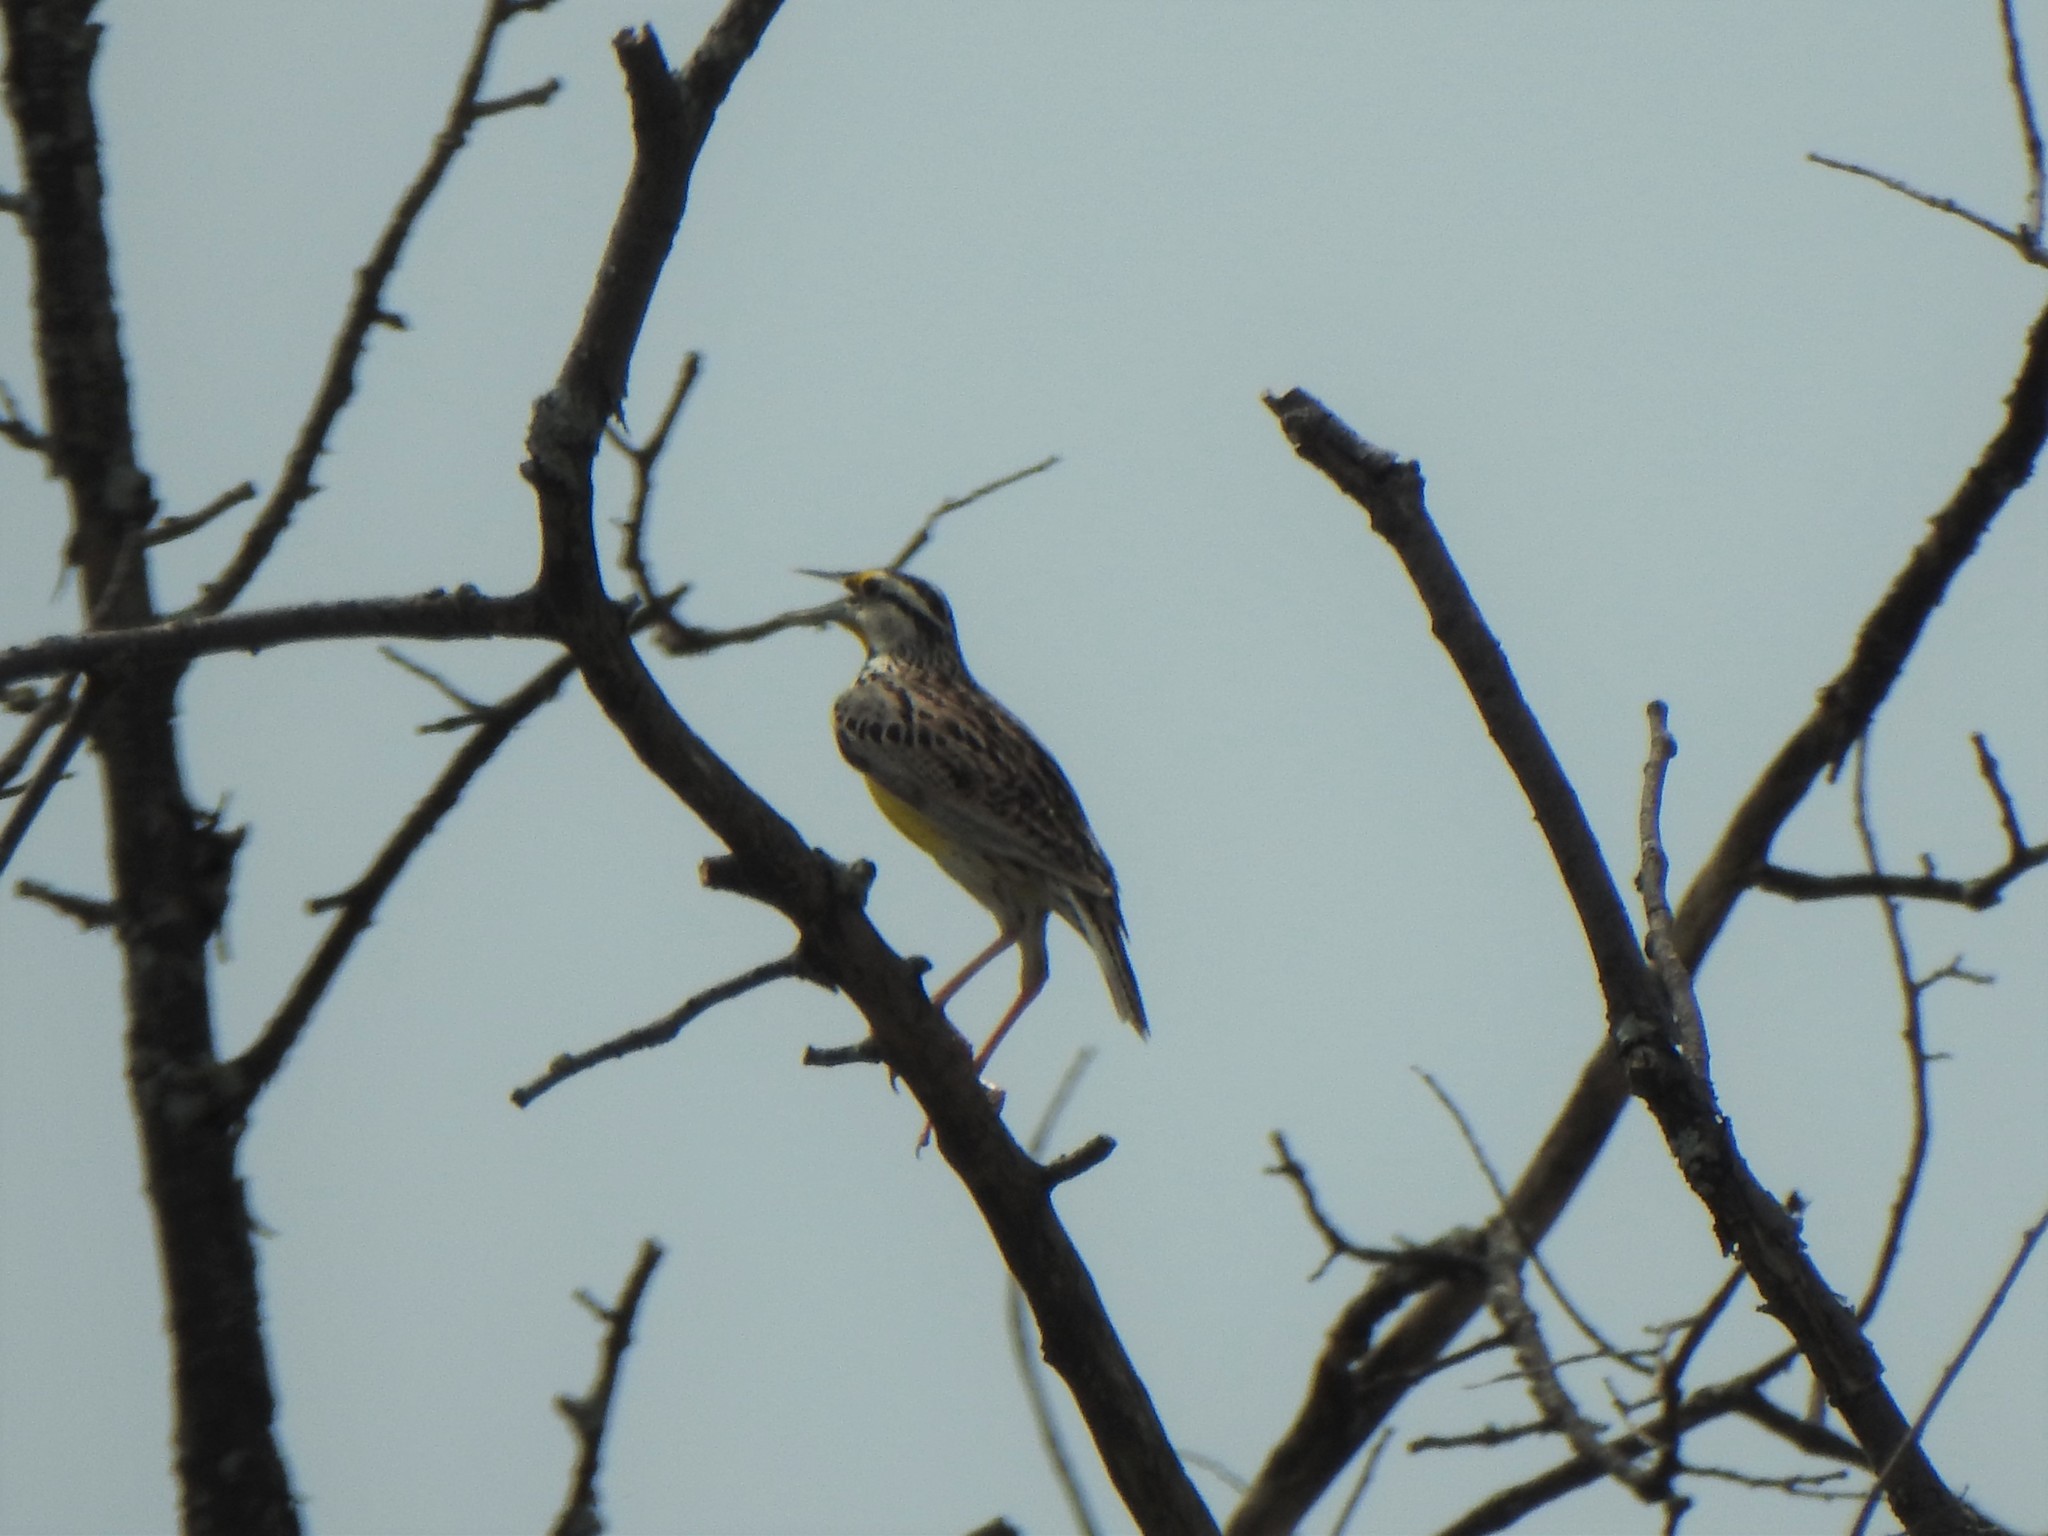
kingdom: Animalia
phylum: Chordata
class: Aves
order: Passeriformes
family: Icteridae
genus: Sturnella
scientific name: Sturnella magna
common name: Eastern meadowlark
